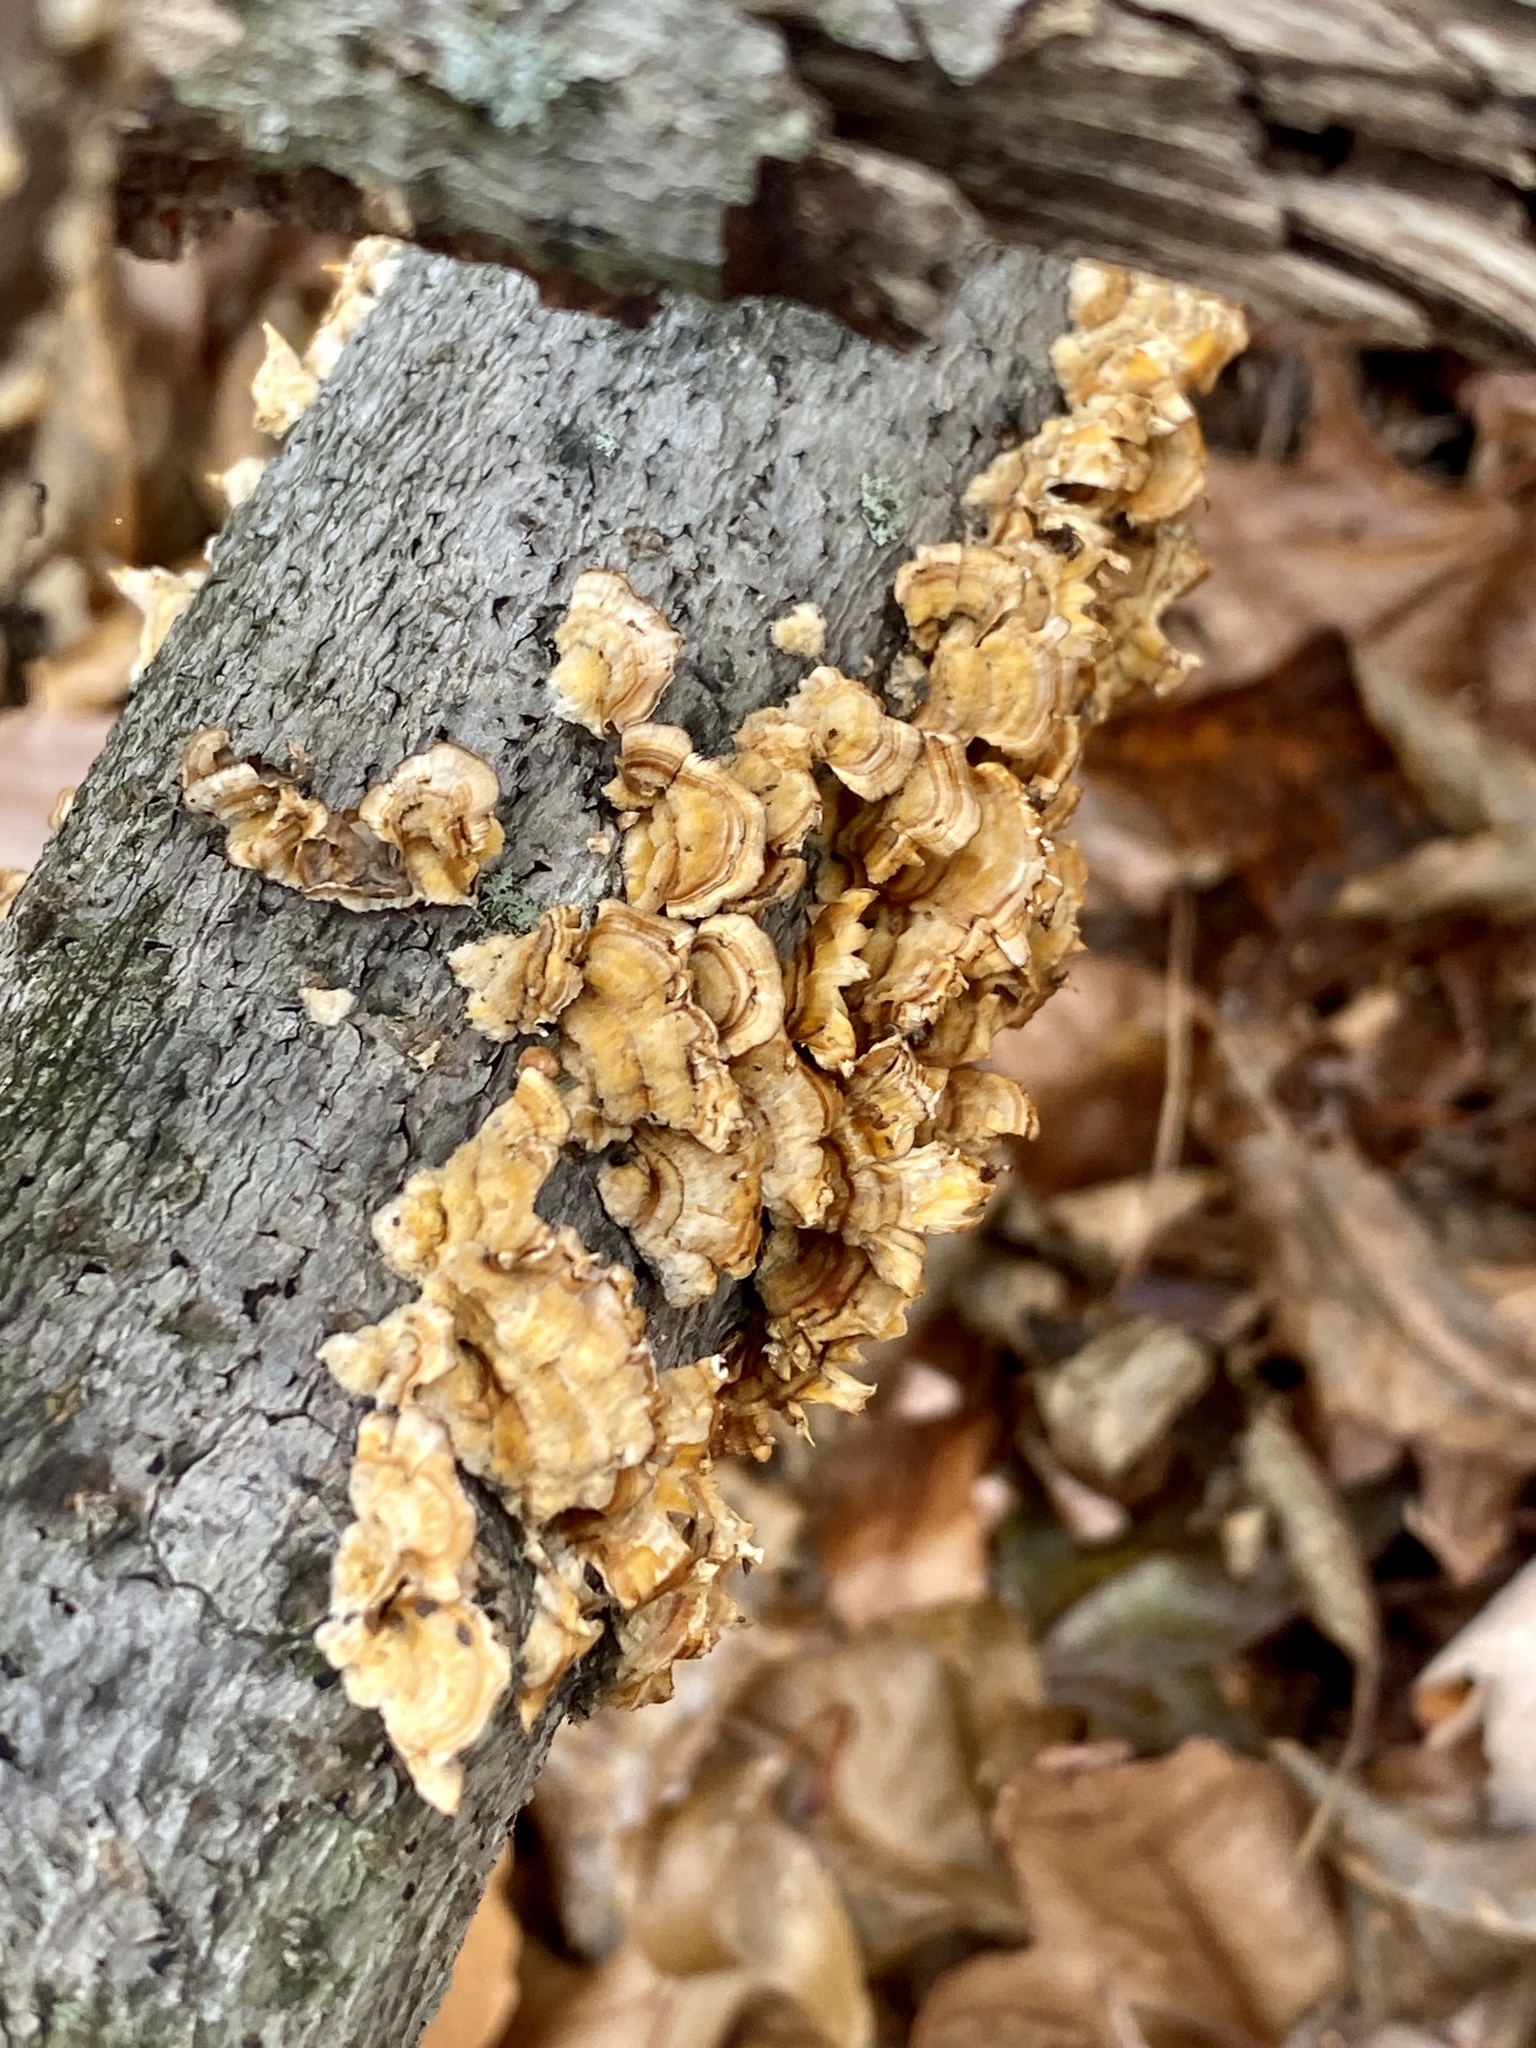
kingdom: Fungi
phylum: Basidiomycota
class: Agaricomycetes
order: Russulales
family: Stereaceae
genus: Stereum
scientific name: Stereum complicatum
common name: Crowded parchment
